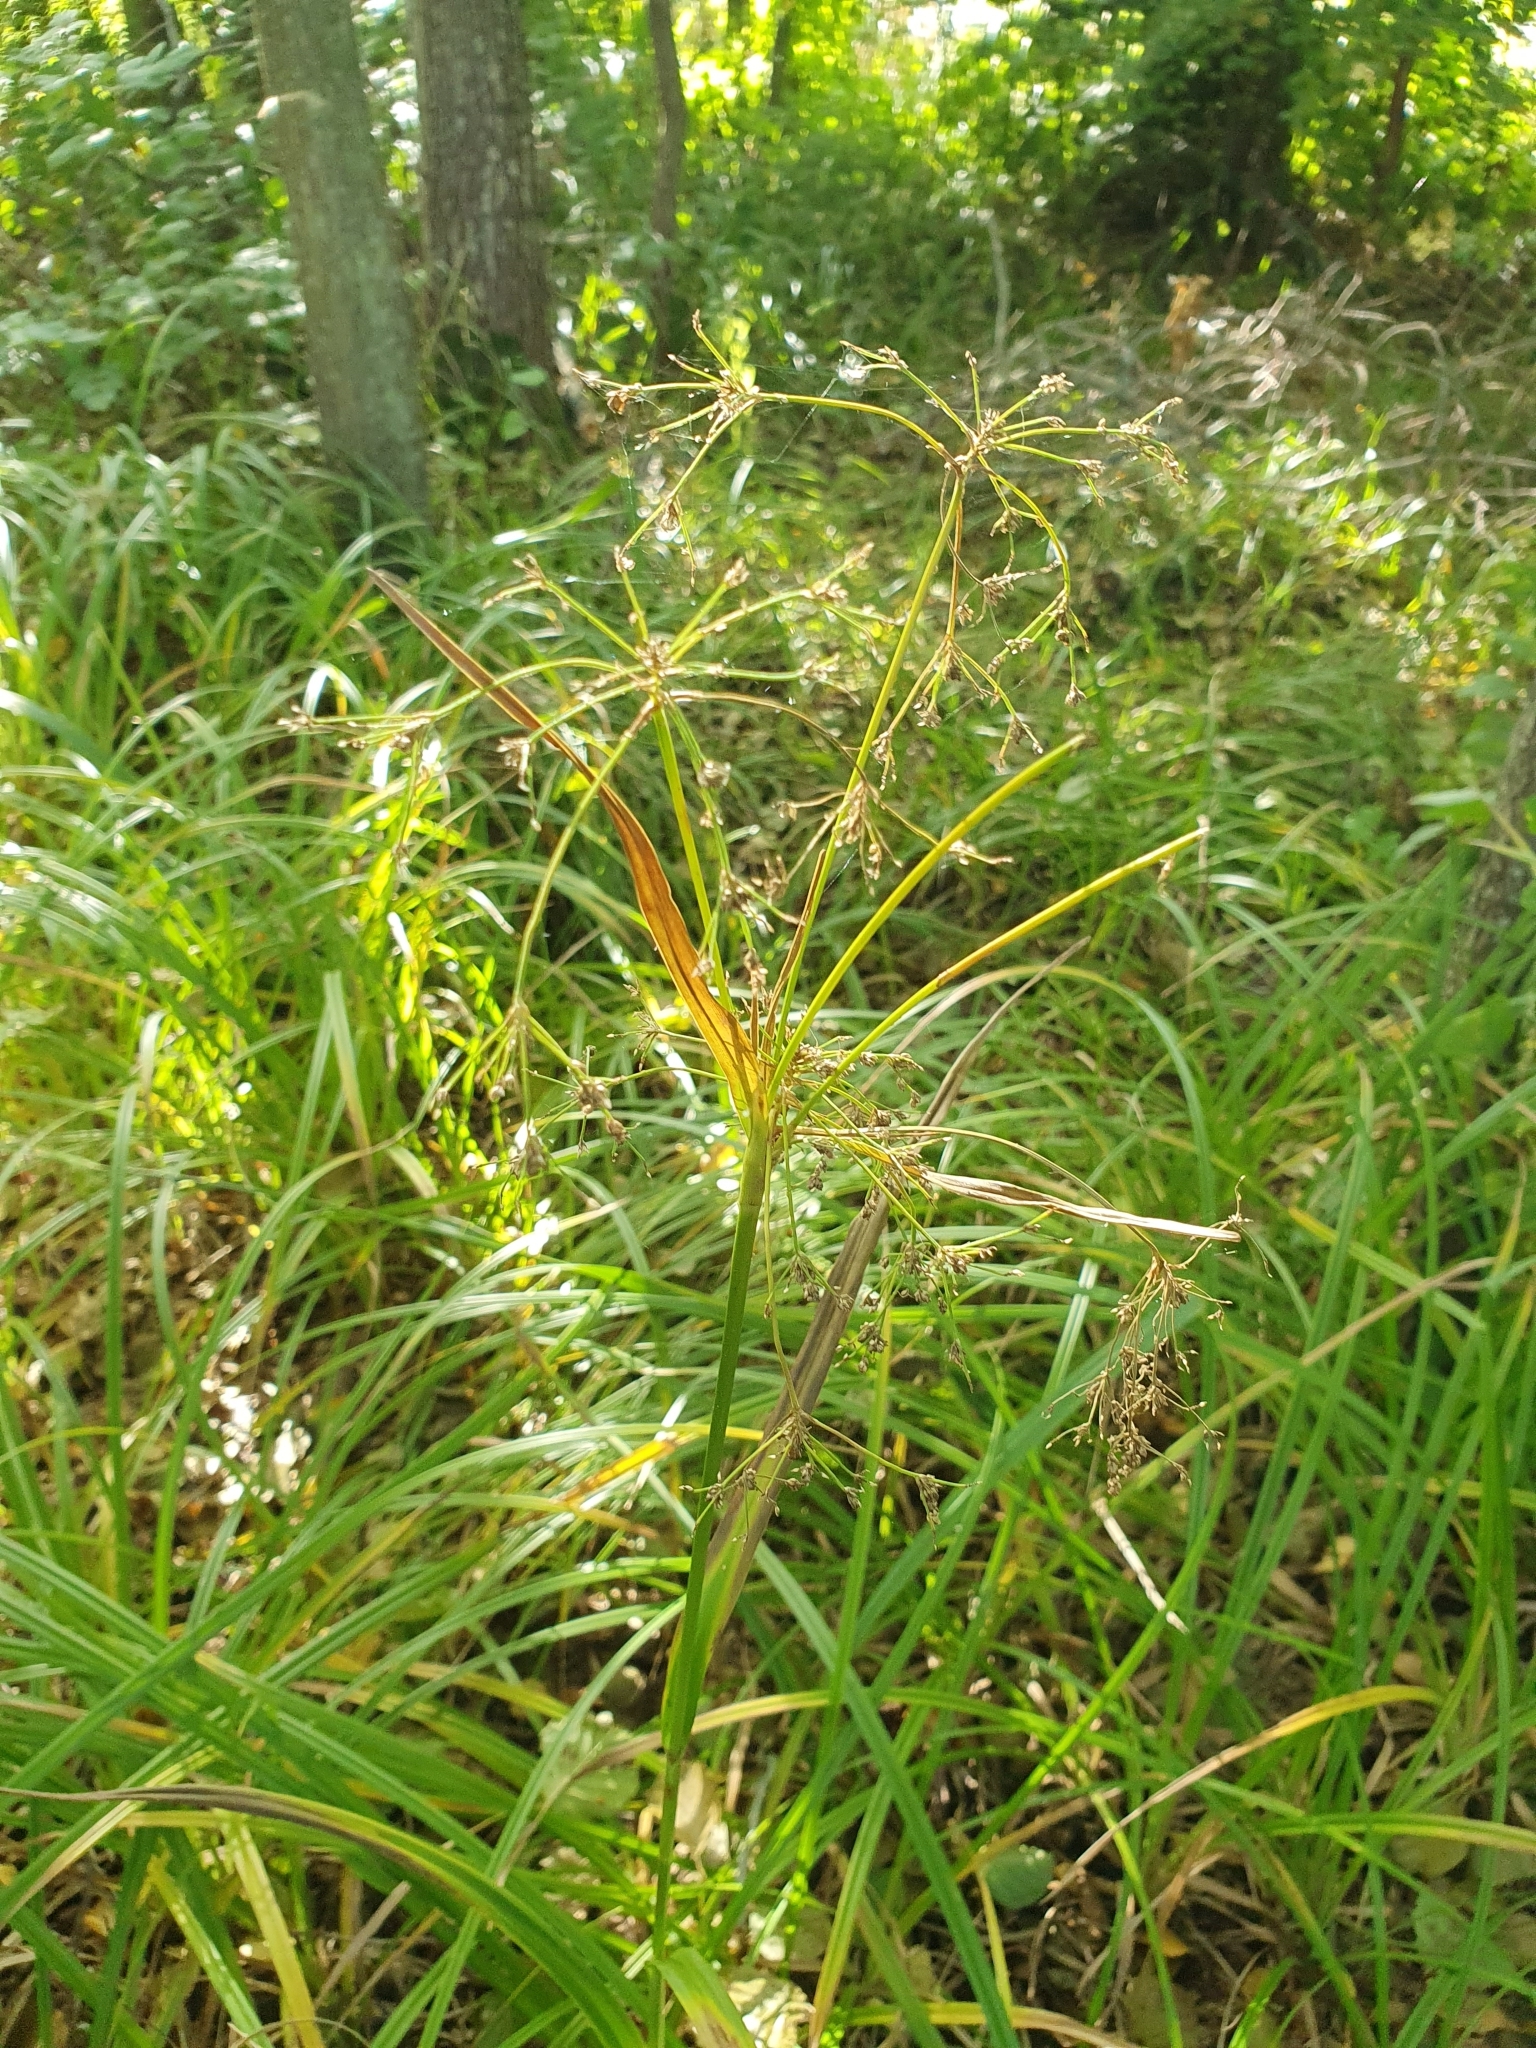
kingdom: Plantae
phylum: Tracheophyta
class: Liliopsida
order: Poales
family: Cyperaceae
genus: Scirpus
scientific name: Scirpus sylvaticus
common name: Wood club-rush
